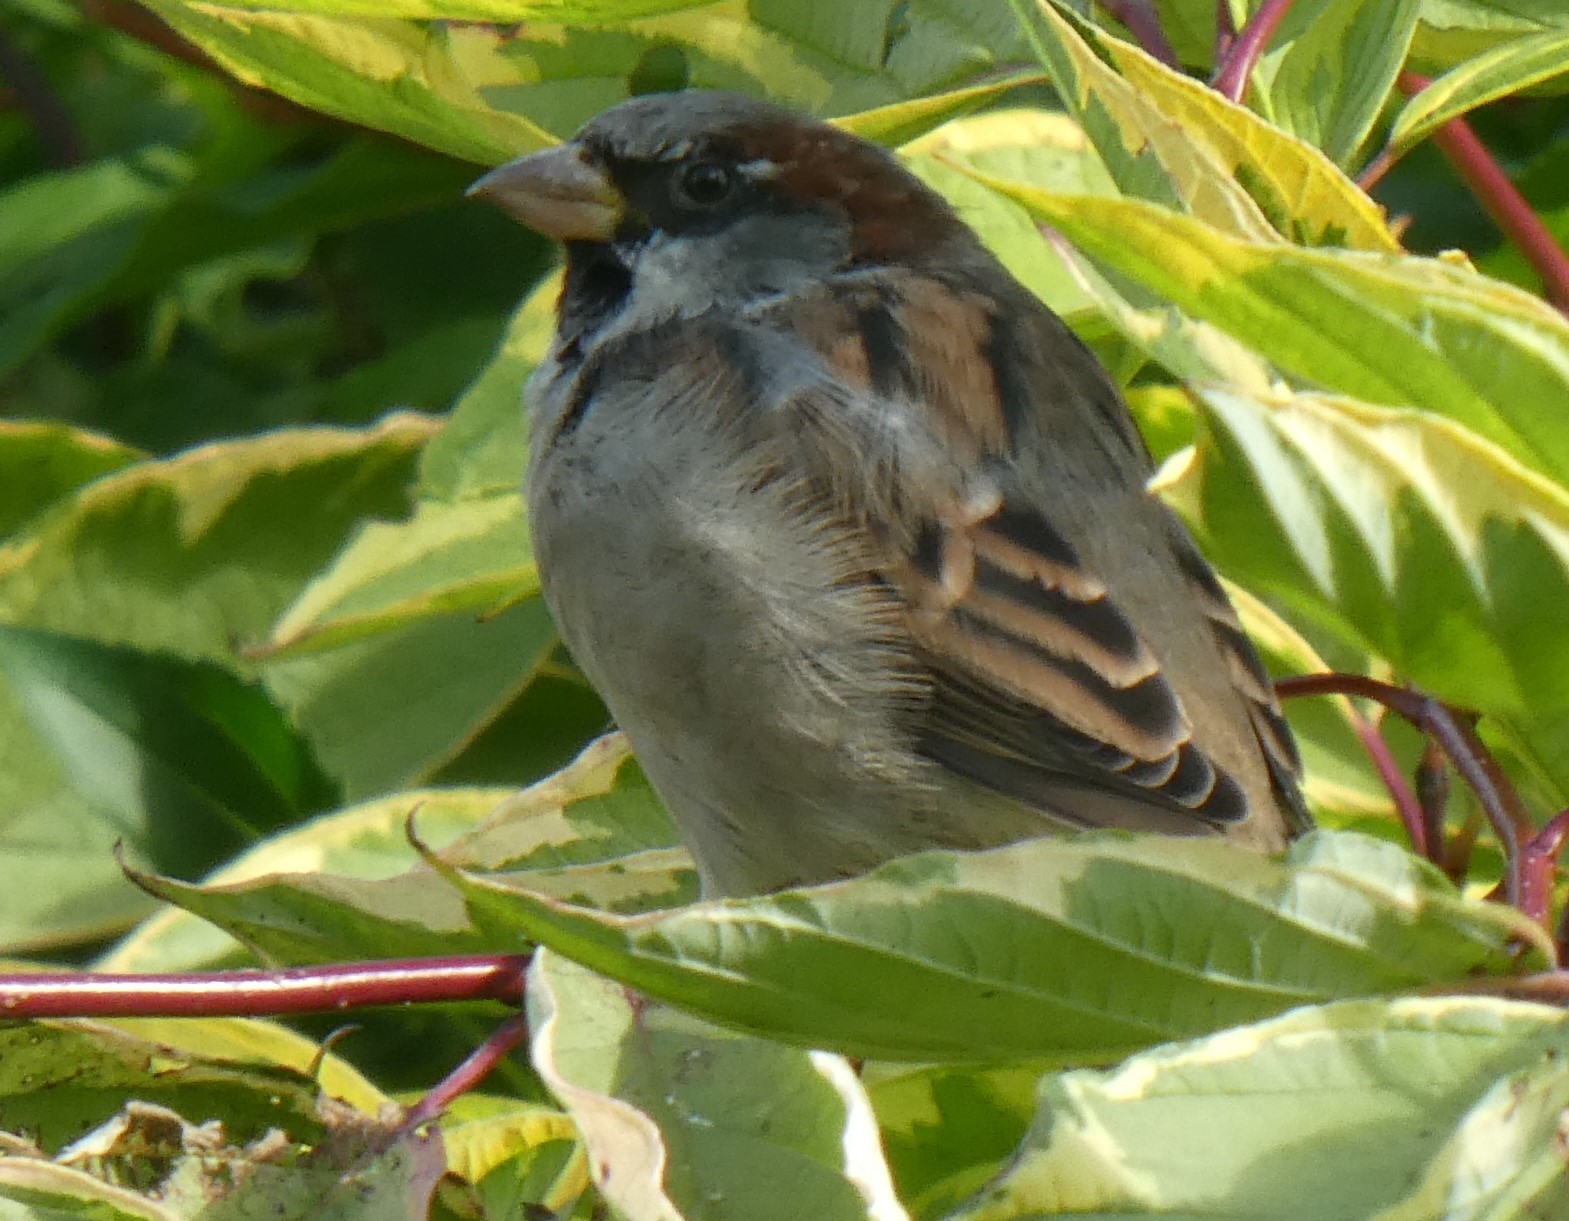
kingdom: Animalia
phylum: Chordata
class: Aves
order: Passeriformes
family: Passeridae
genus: Passer
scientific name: Passer domesticus
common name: House sparrow
